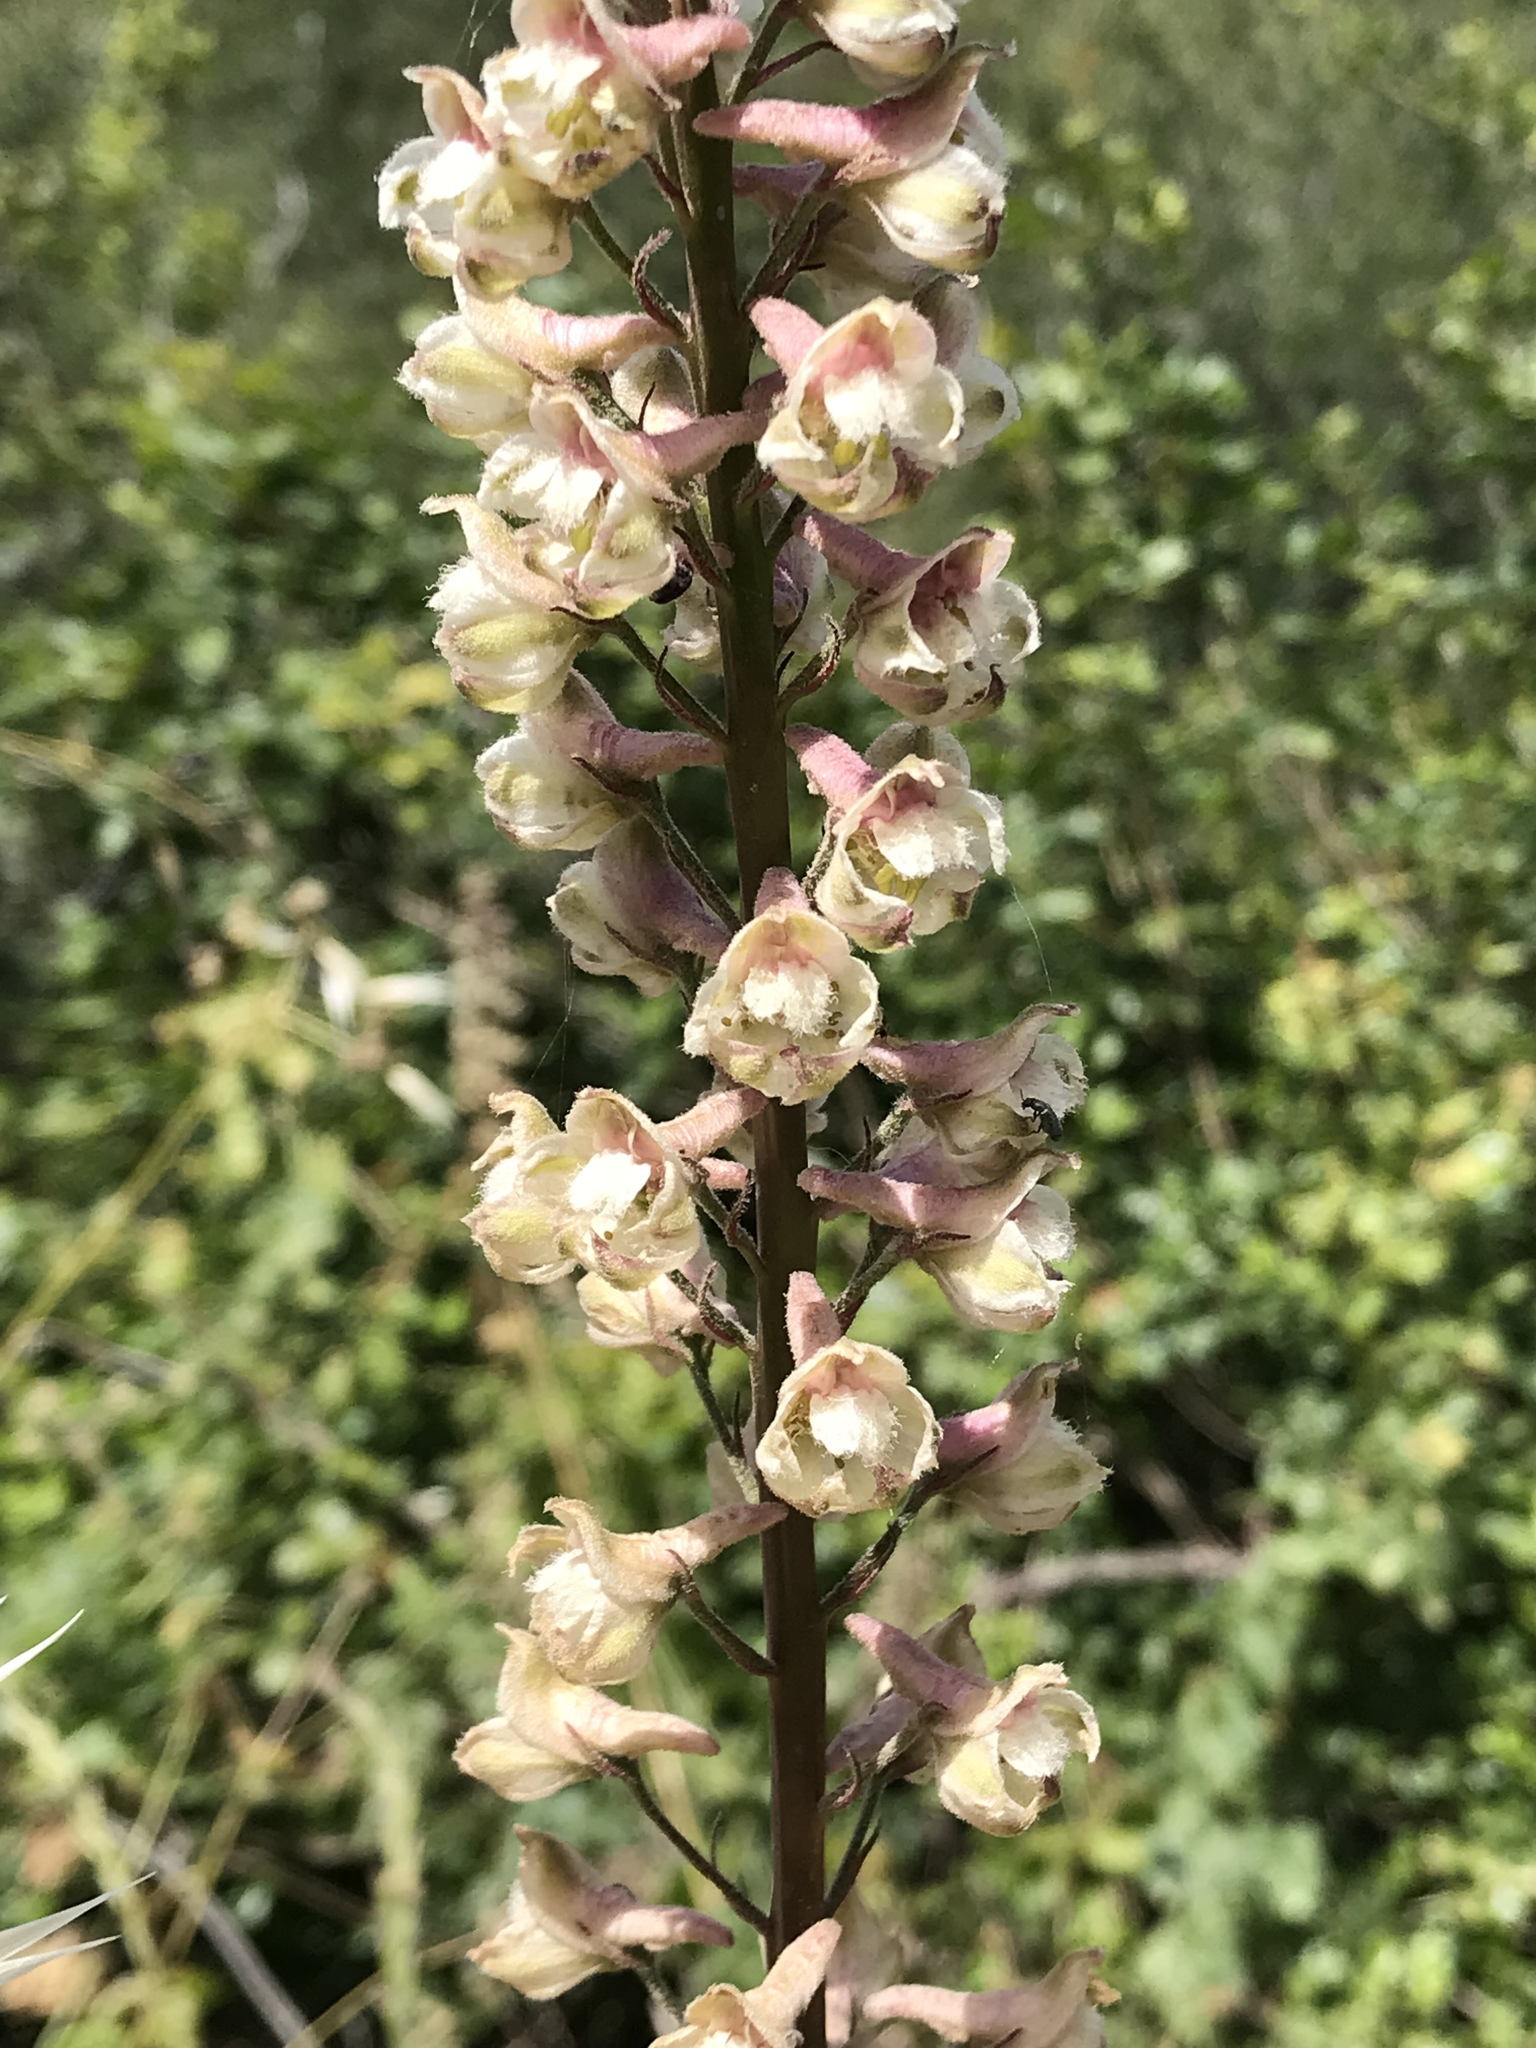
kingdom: Plantae
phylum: Tracheophyta
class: Magnoliopsida
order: Ranunculales
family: Ranunculaceae
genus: Delphinium
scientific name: Delphinium californicum
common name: California larkspur
